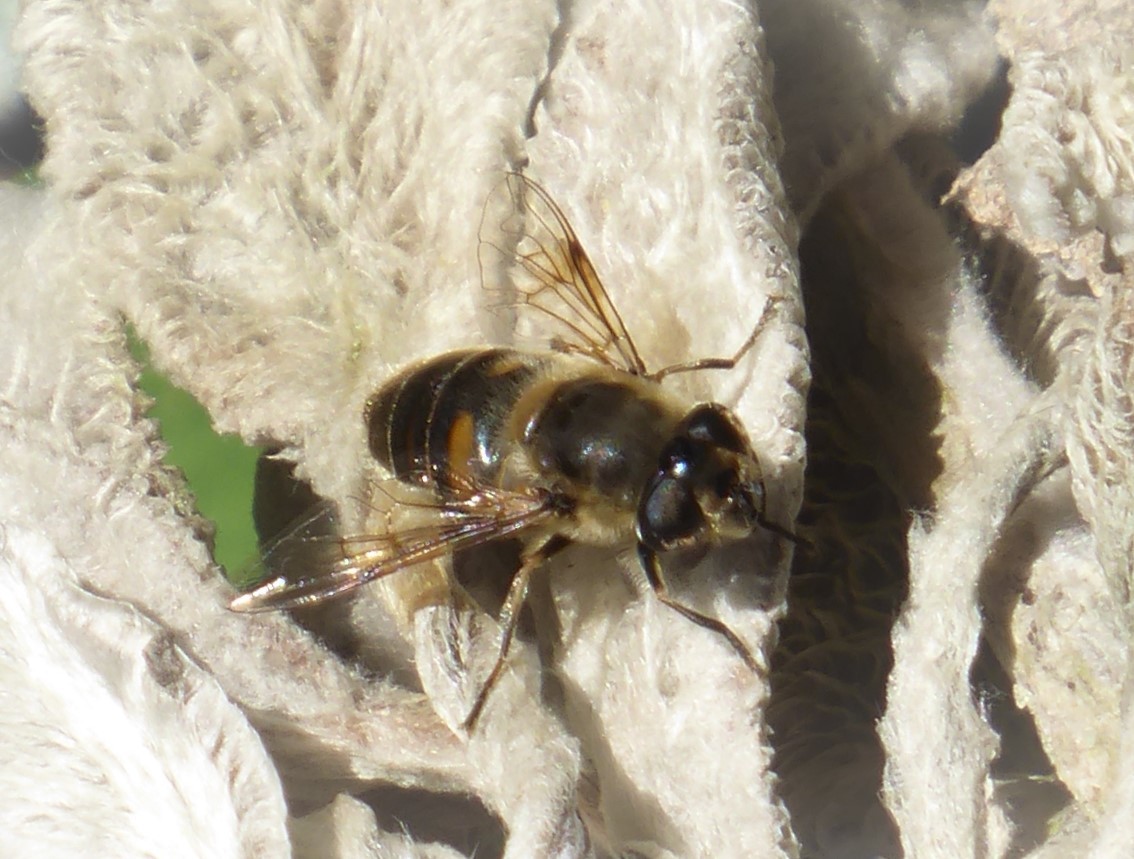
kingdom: Animalia
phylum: Arthropoda
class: Insecta
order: Diptera
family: Syrphidae
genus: Eristalis
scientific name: Eristalis tenax
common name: Drone fly
